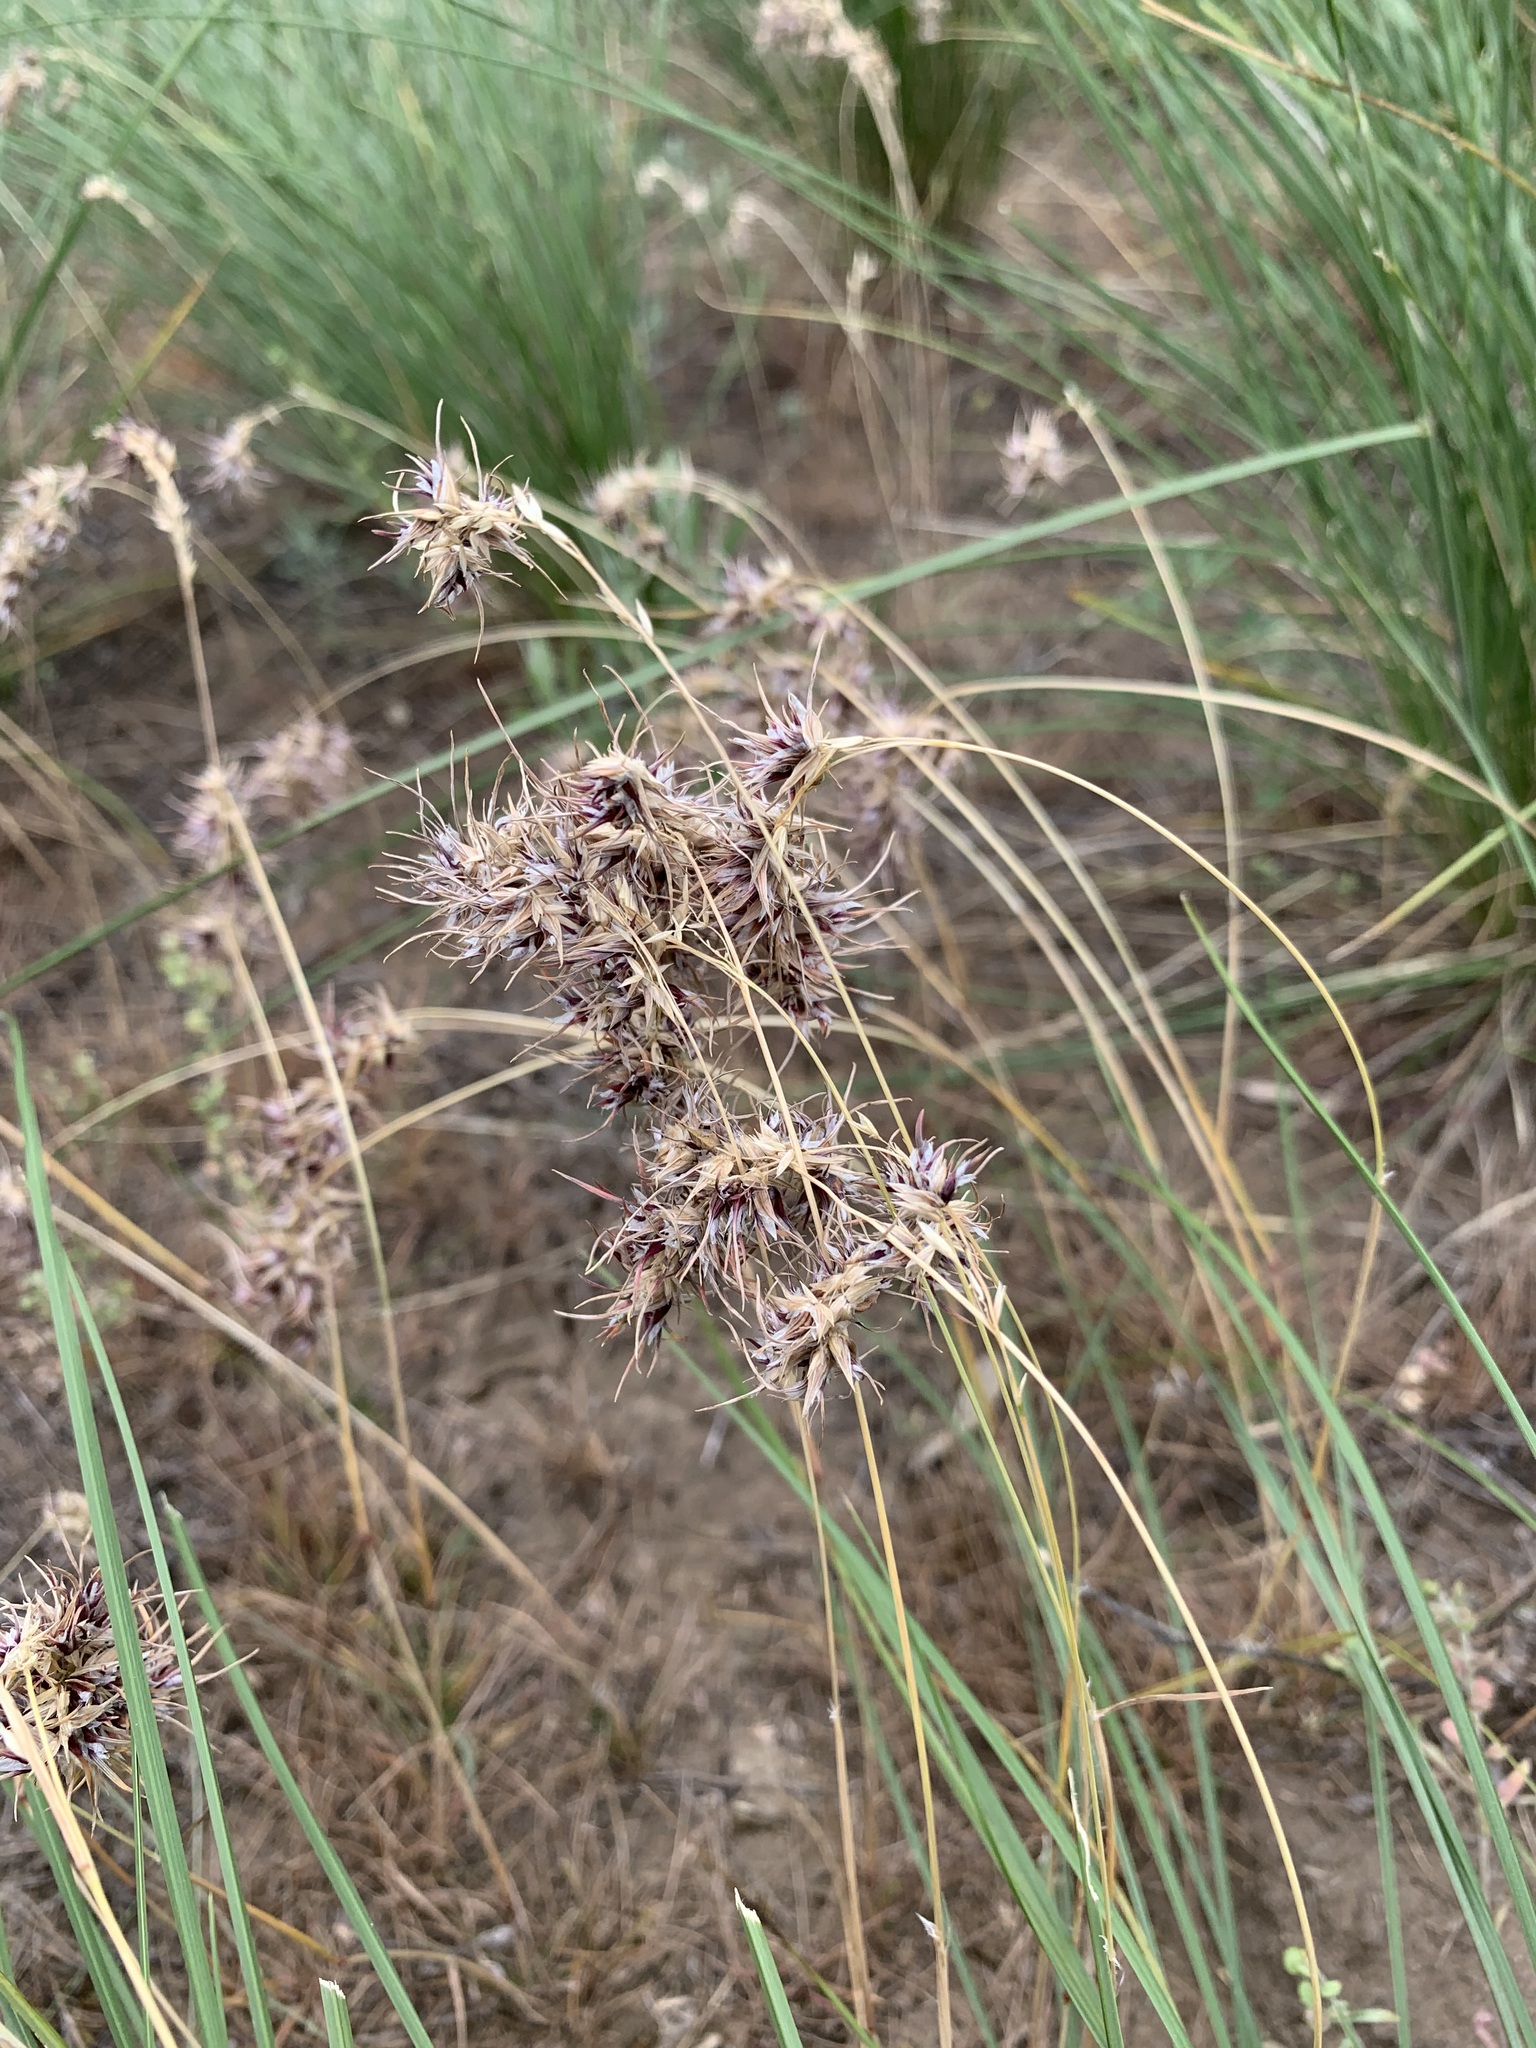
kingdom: Plantae
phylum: Tracheophyta
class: Liliopsida
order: Poales
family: Poaceae
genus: Poa
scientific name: Poa bulbosa
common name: Bulbous bluegrass
